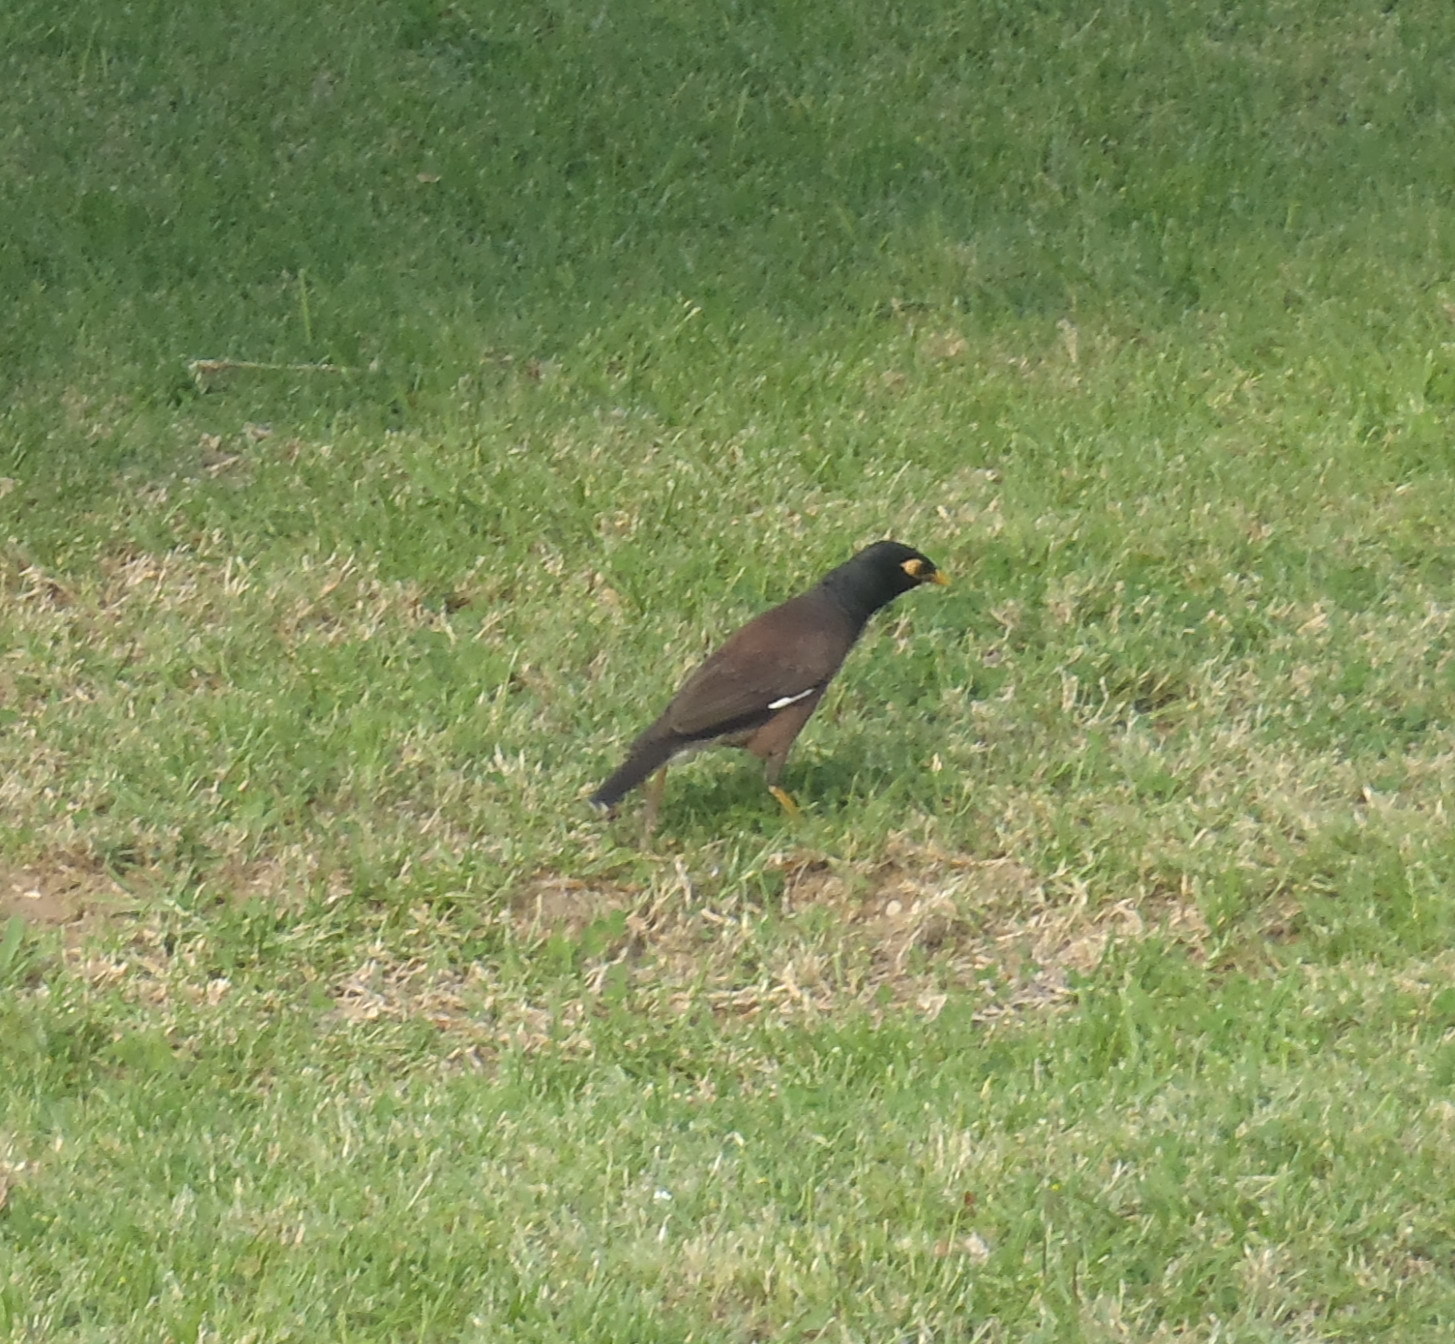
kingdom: Animalia
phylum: Chordata
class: Aves
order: Passeriformes
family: Sturnidae
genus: Acridotheres
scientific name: Acridotheres tristis
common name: Common myna
